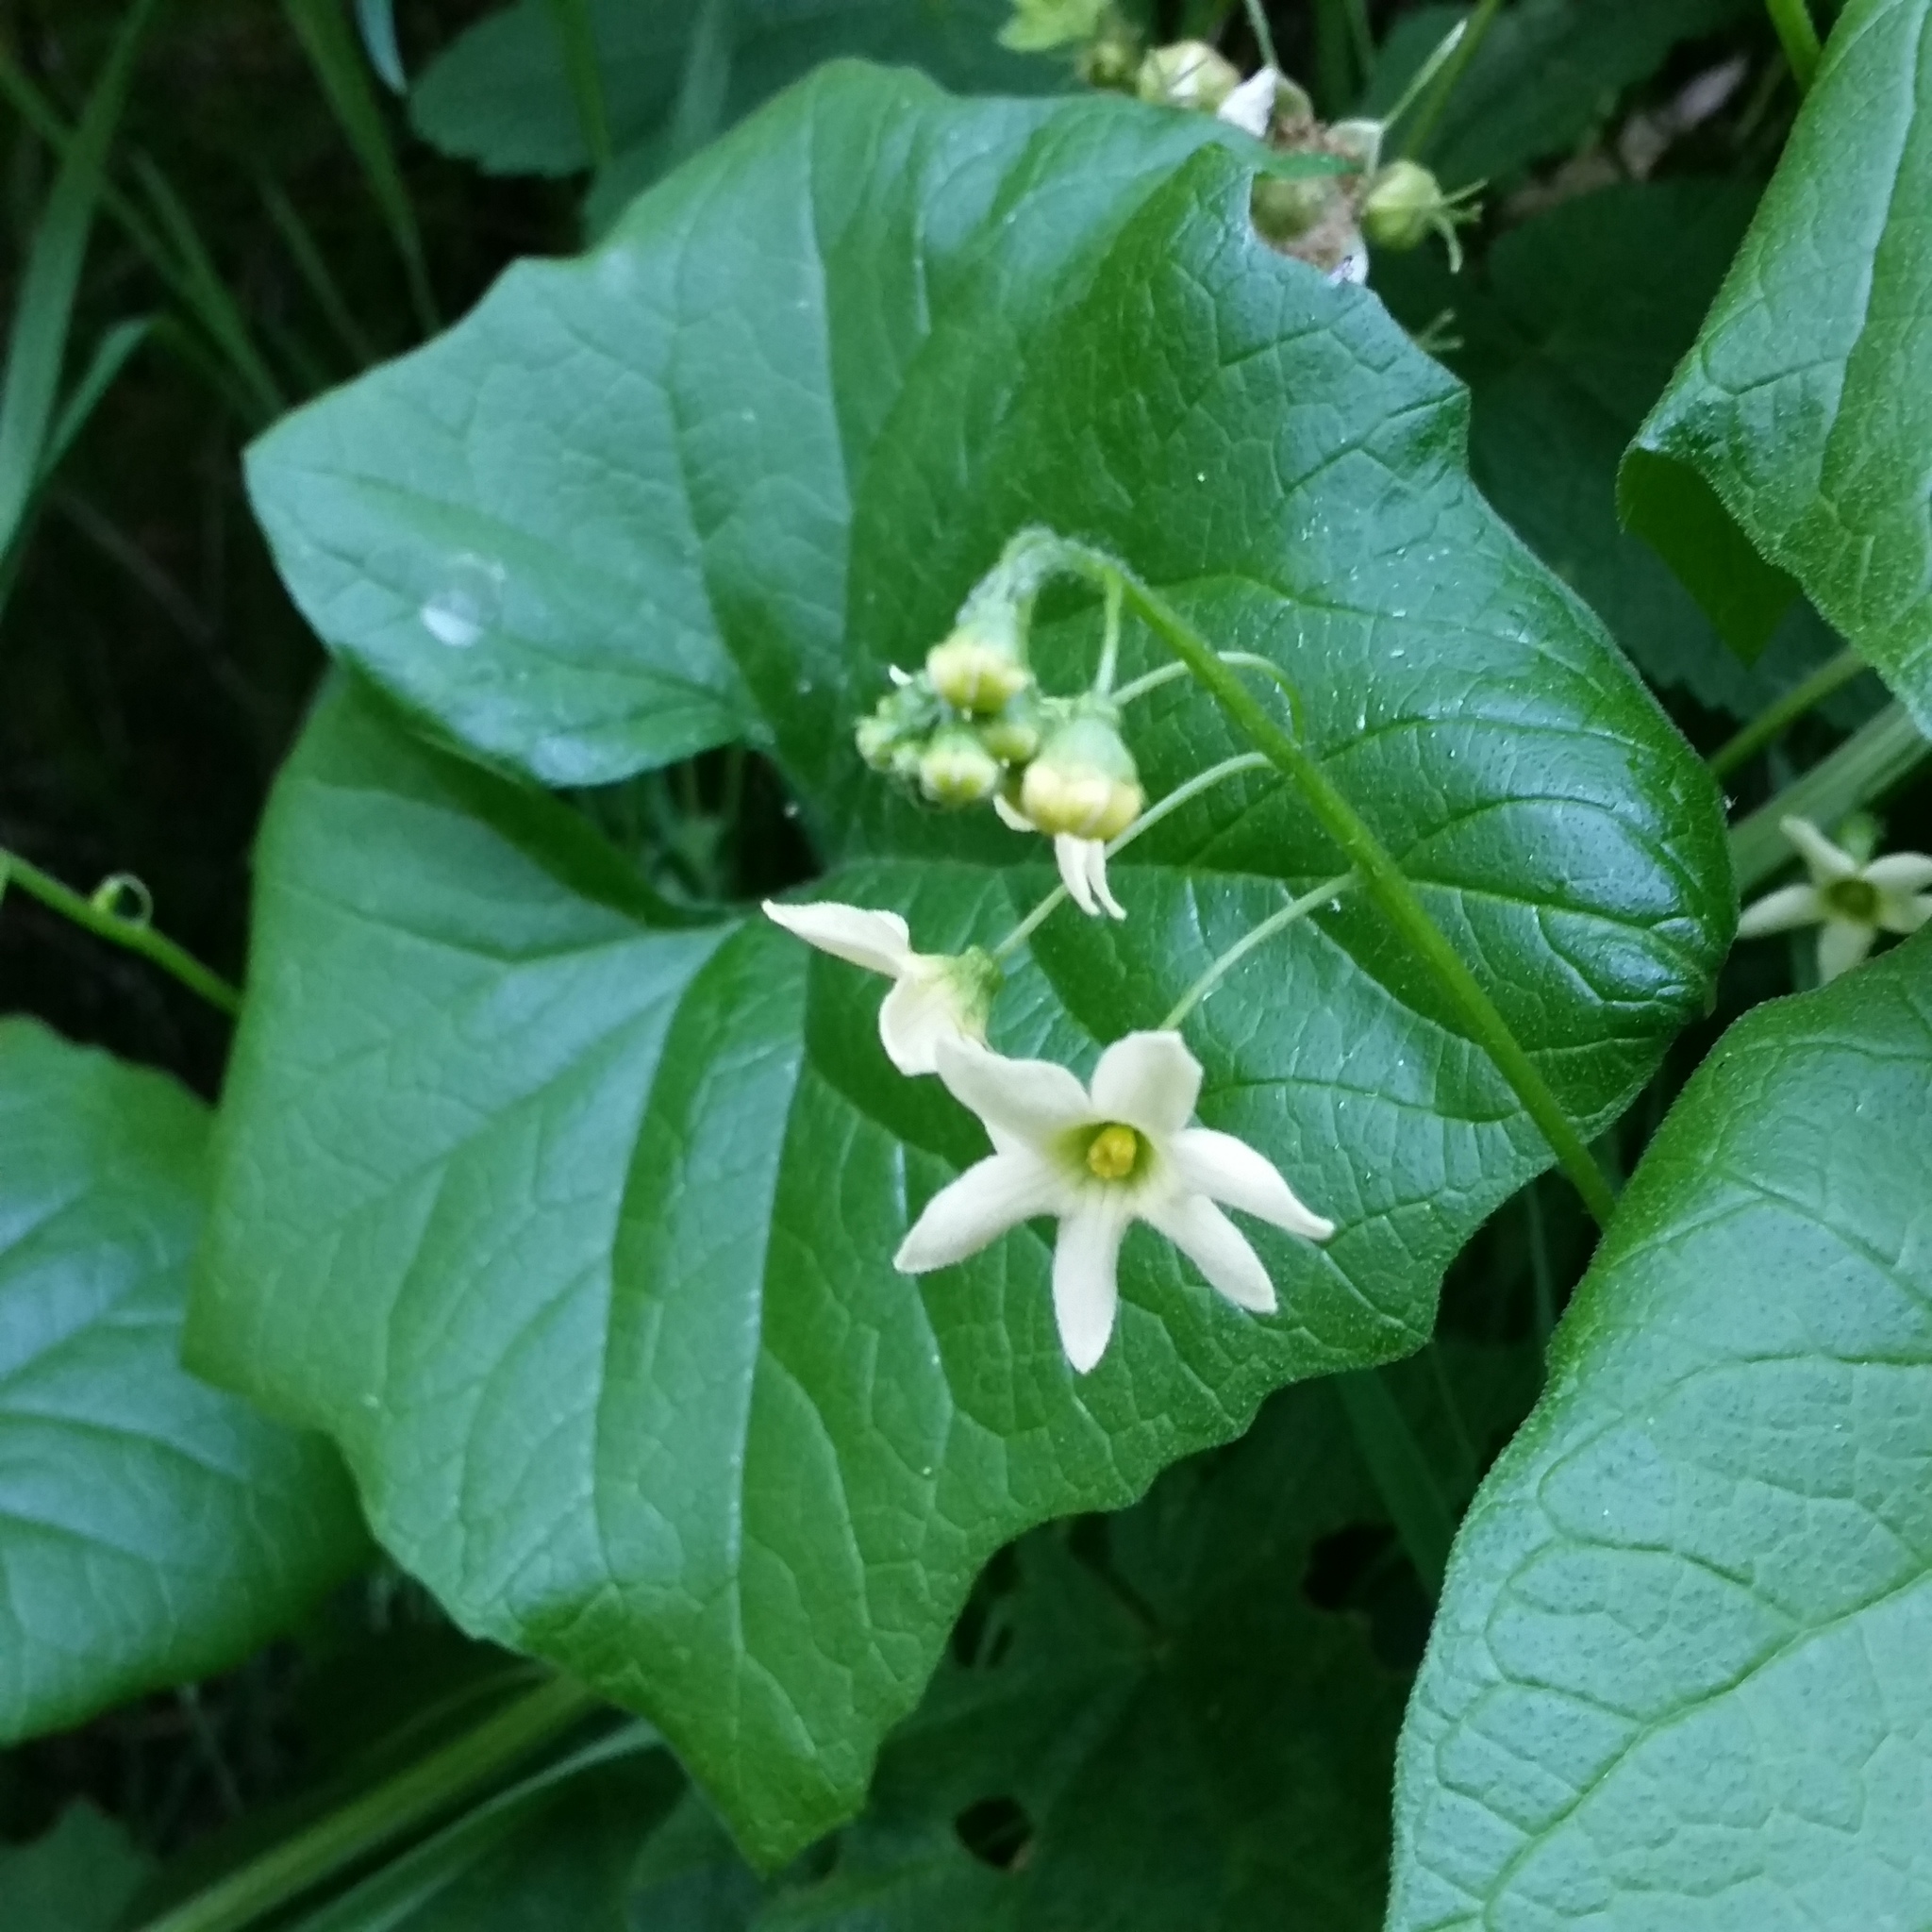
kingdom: Plantae
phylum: Tracheophyta
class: Magnoliopsida
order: Cucurbitales
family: Cucurbitaceae
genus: Marah
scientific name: Marah oregana
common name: Coastal manroot
